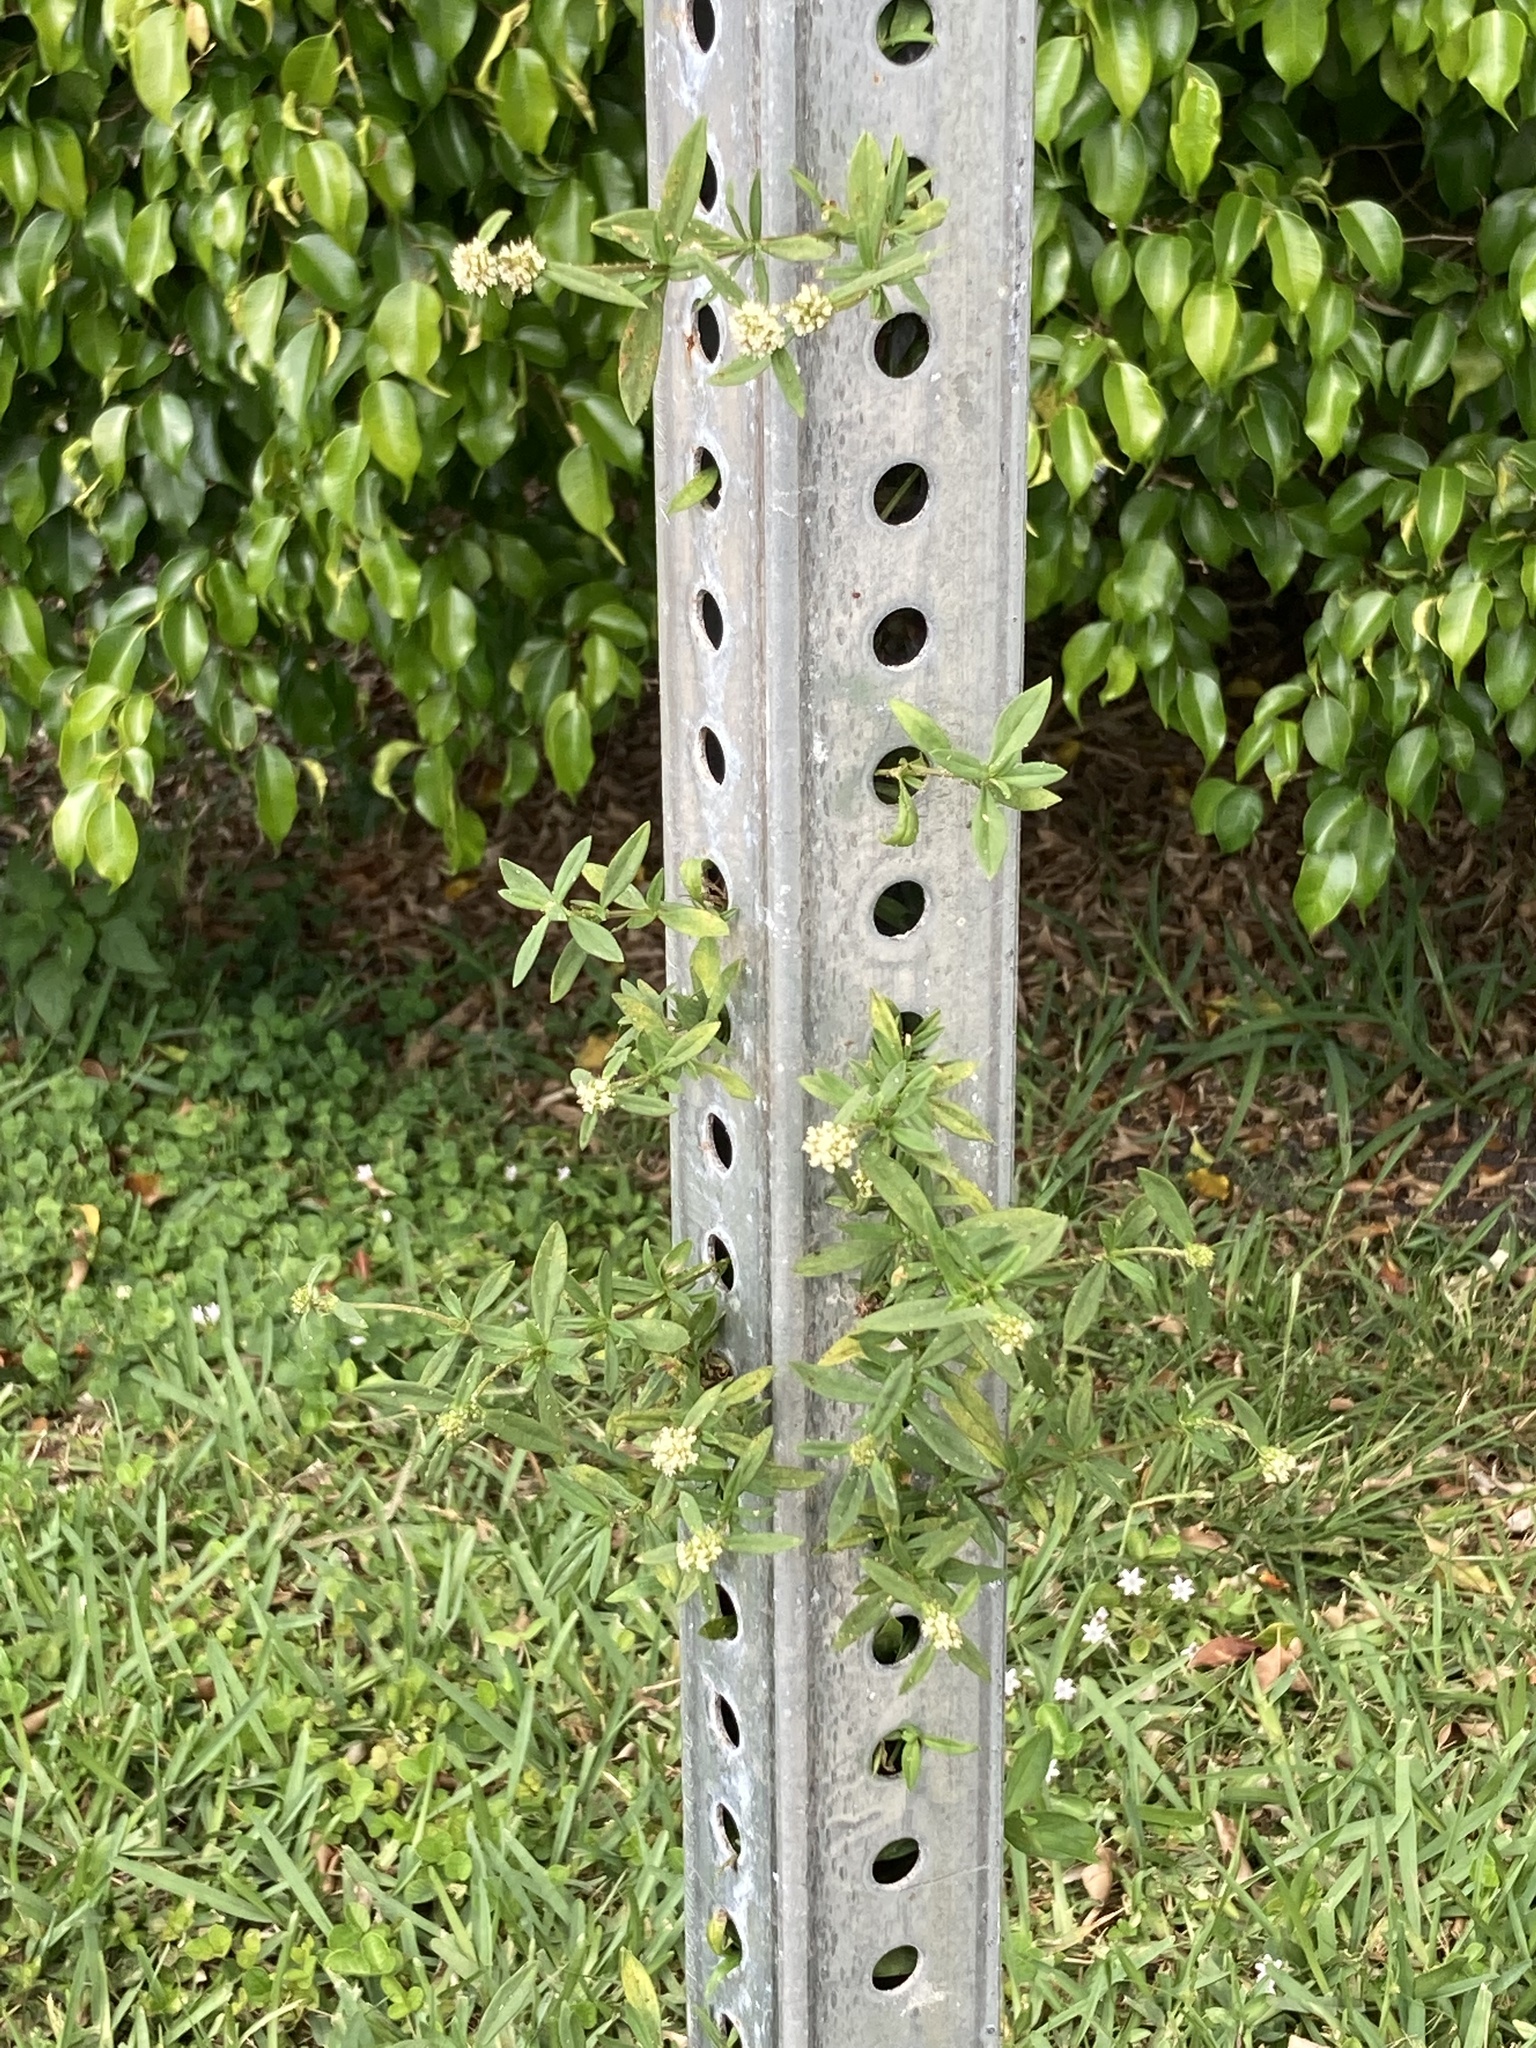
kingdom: Plantae
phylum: Tracheophyta
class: Magnoliopsida
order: Gentianales
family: Rubiaceae
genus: Spermacoce
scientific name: Spermacoce verticillata
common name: Shrubby false buttonweed
